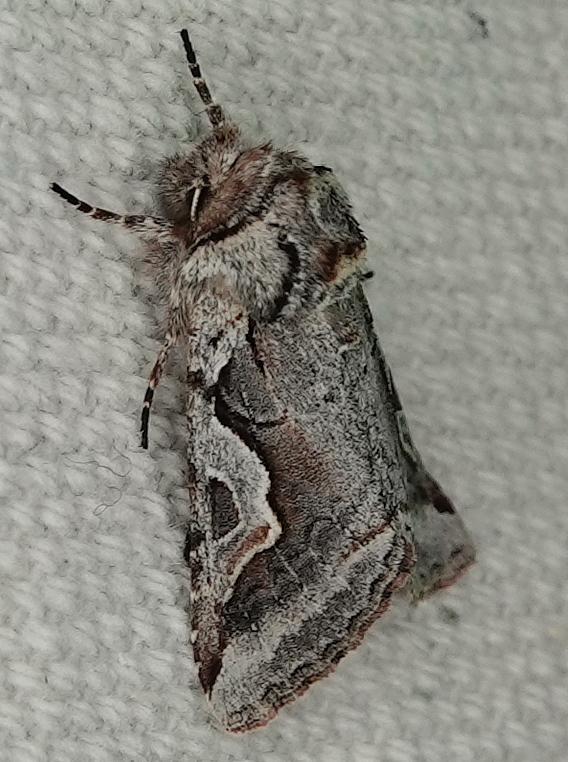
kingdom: Animalia
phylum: Arthropoda
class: Insecta
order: Lepidoptera
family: Noctuidae
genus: Stretchia
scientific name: Stretchia plusiaeformis
